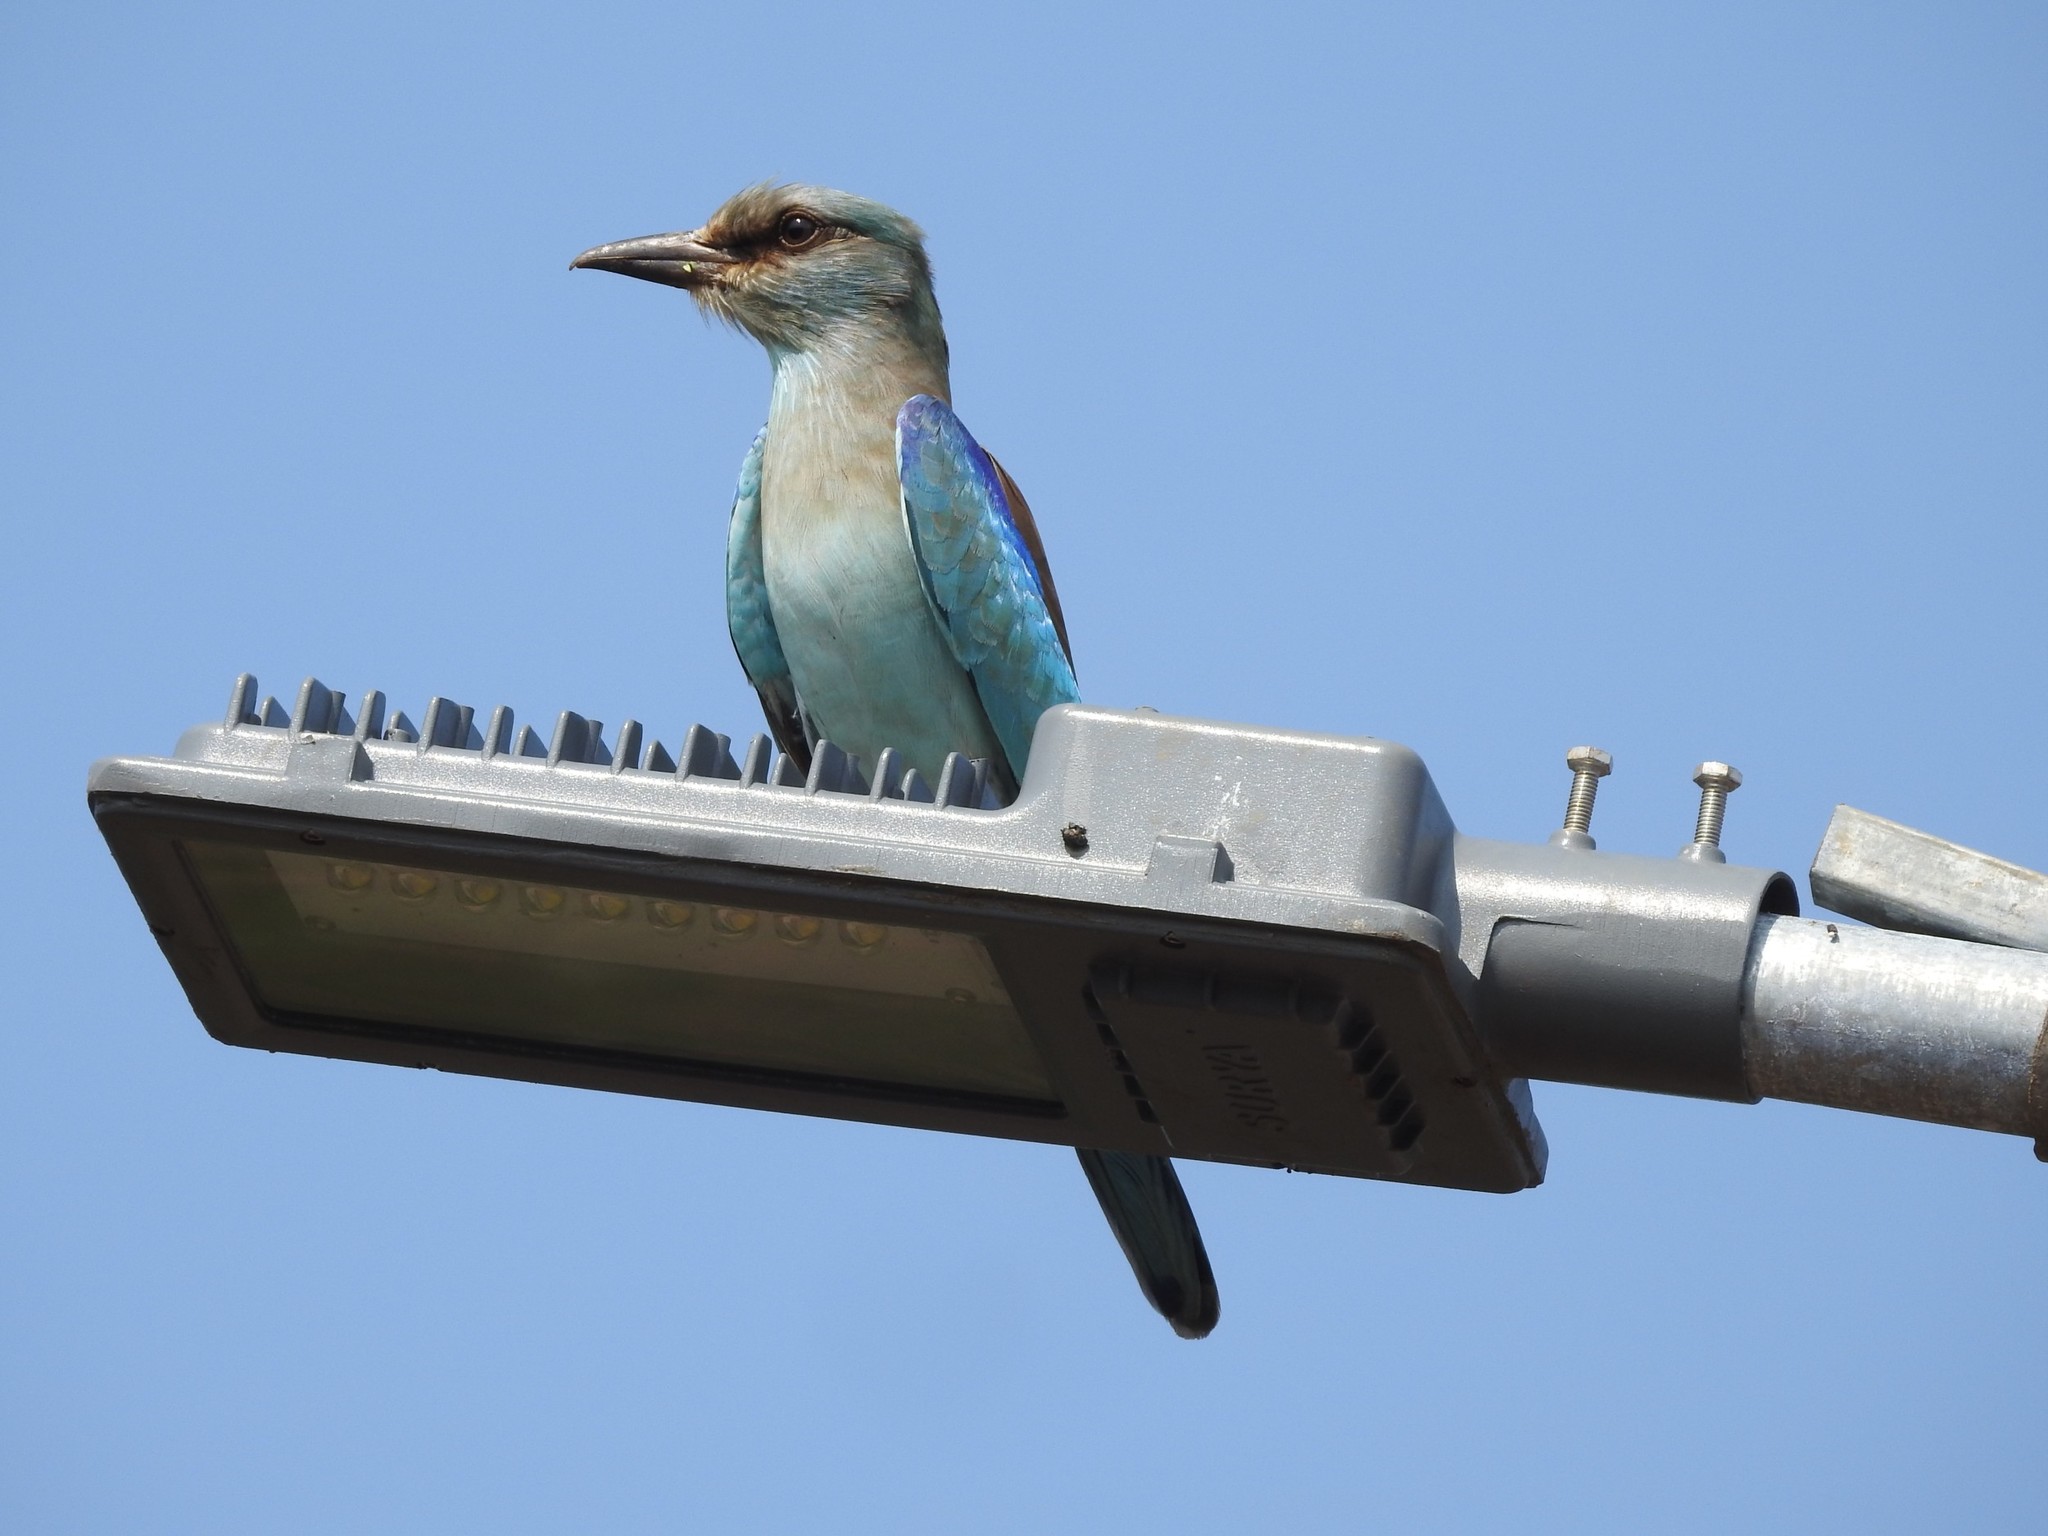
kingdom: Animalia
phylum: Chordata
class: Aves
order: Coraciiformes
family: Coraciidae
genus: Coracias
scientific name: Coracias garrulus
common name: European roller
